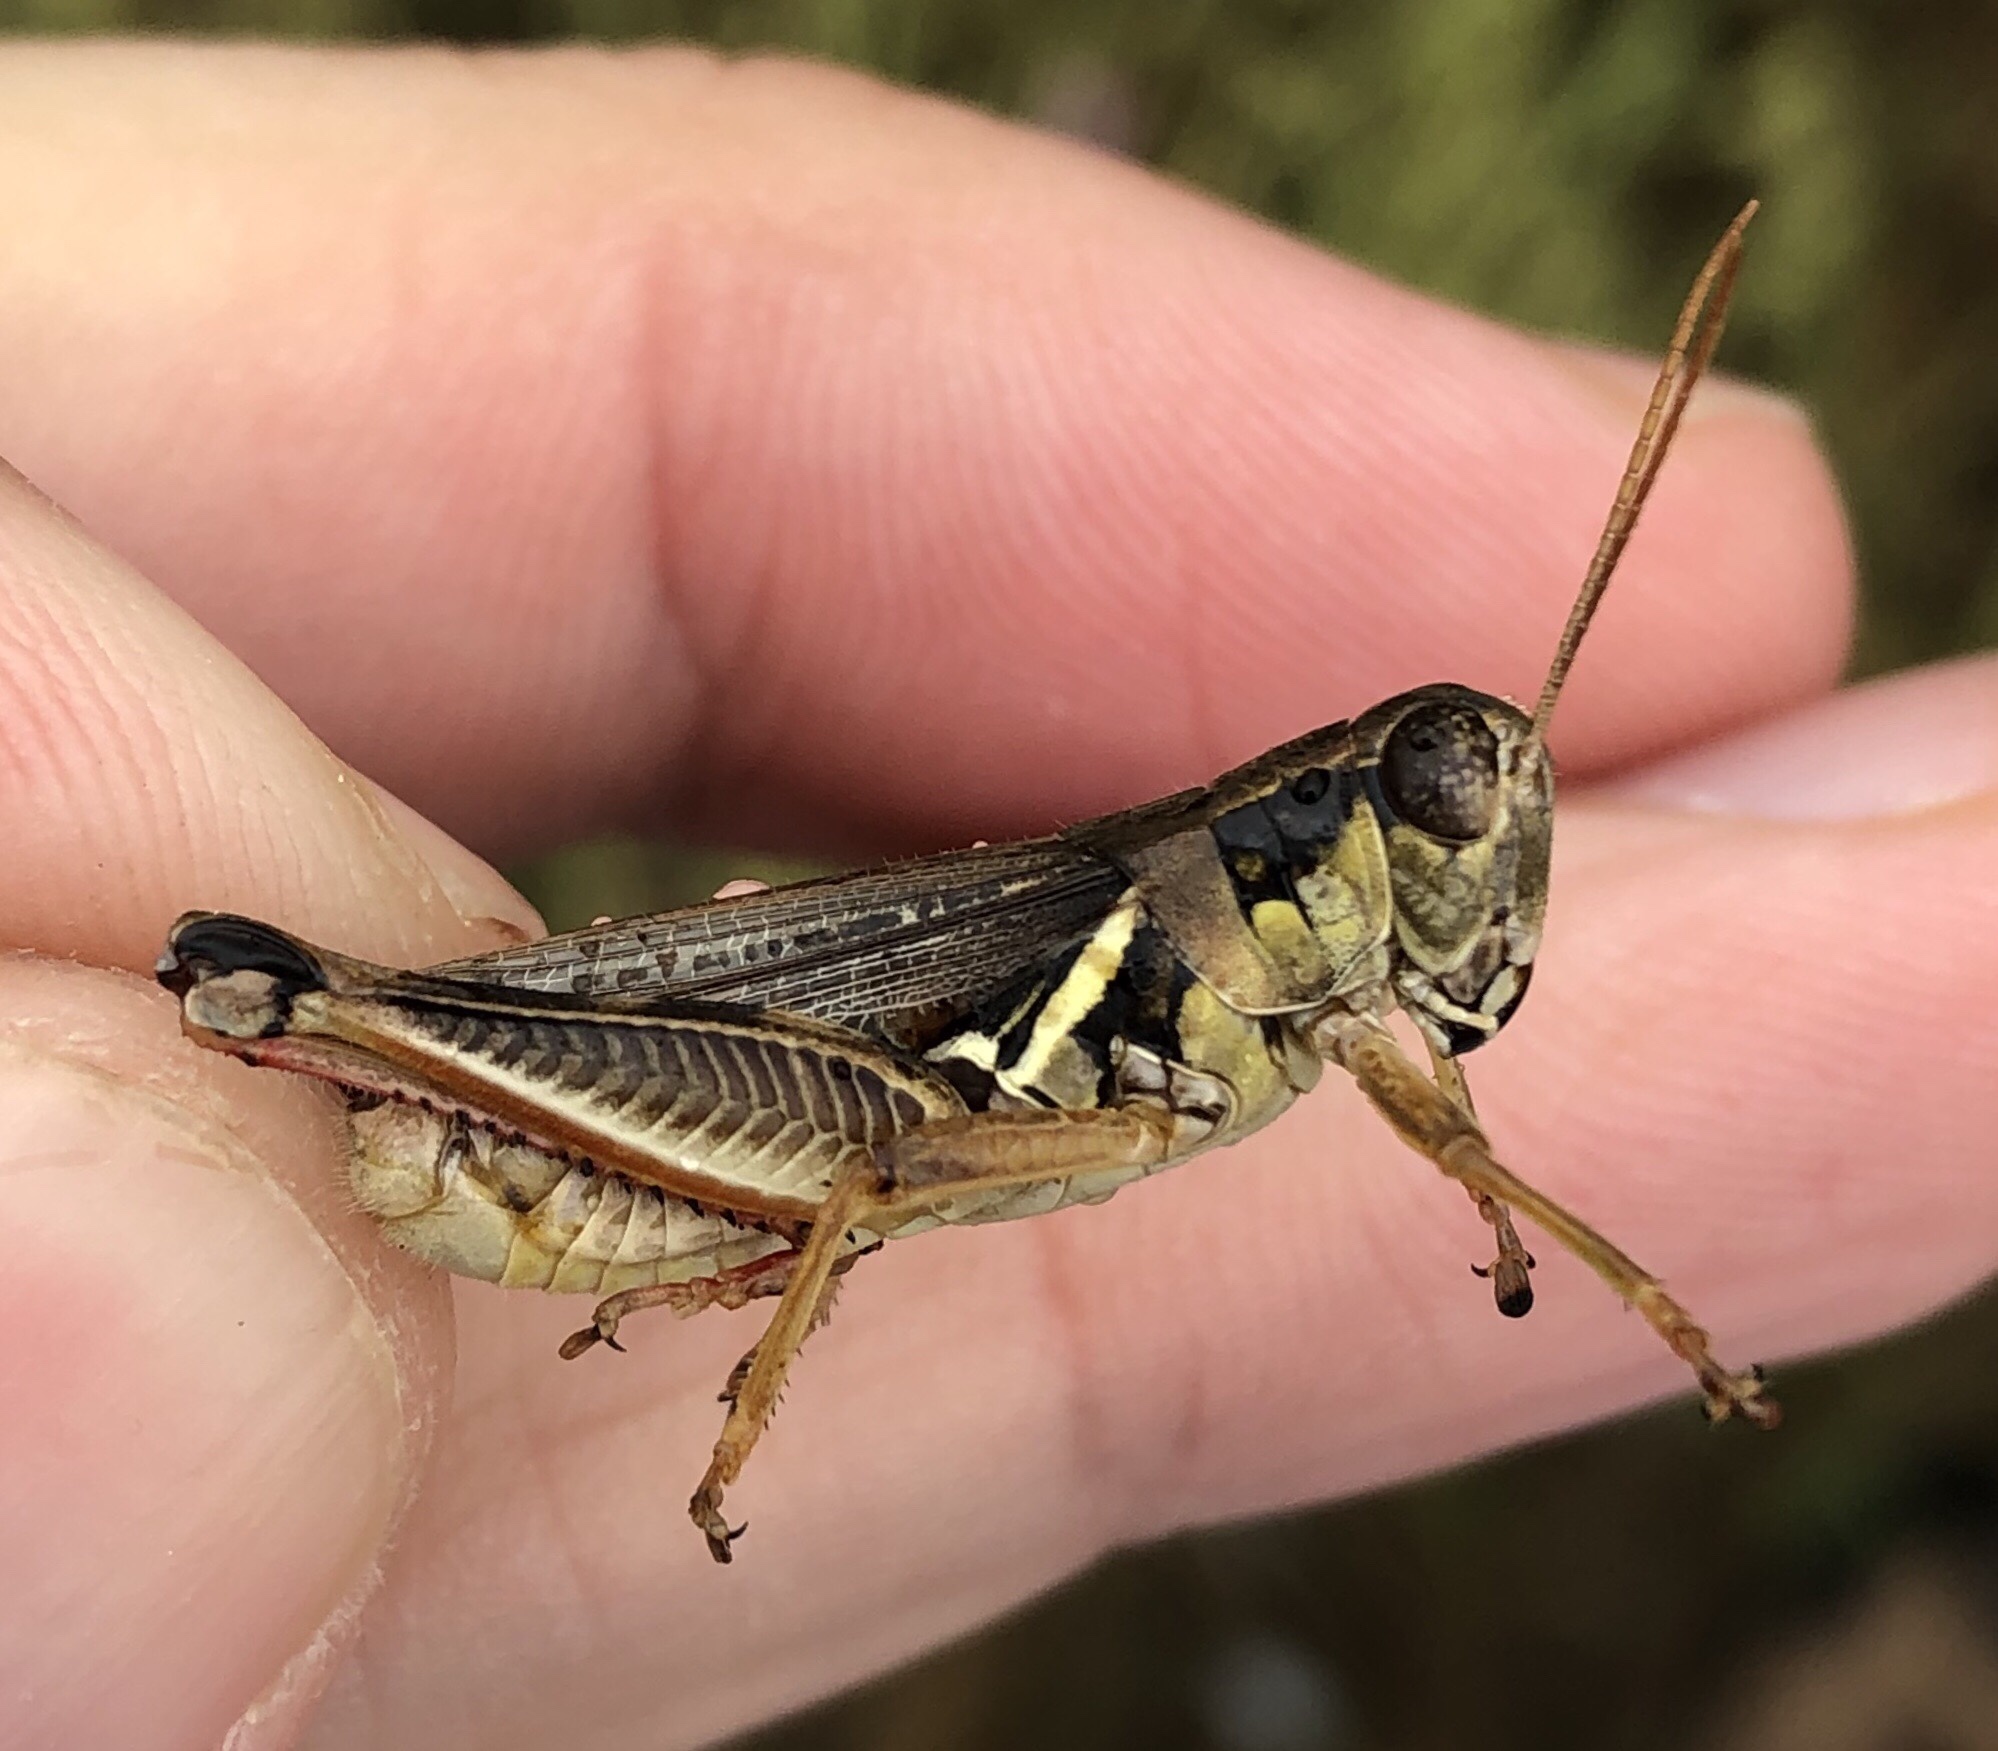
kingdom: Animalia
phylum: Arthropoda
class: Insecta
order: Orthoptera
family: Acrididae
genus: Melanoplus
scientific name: Melanoplus femurrubrum
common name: Red-legged grasshopper
